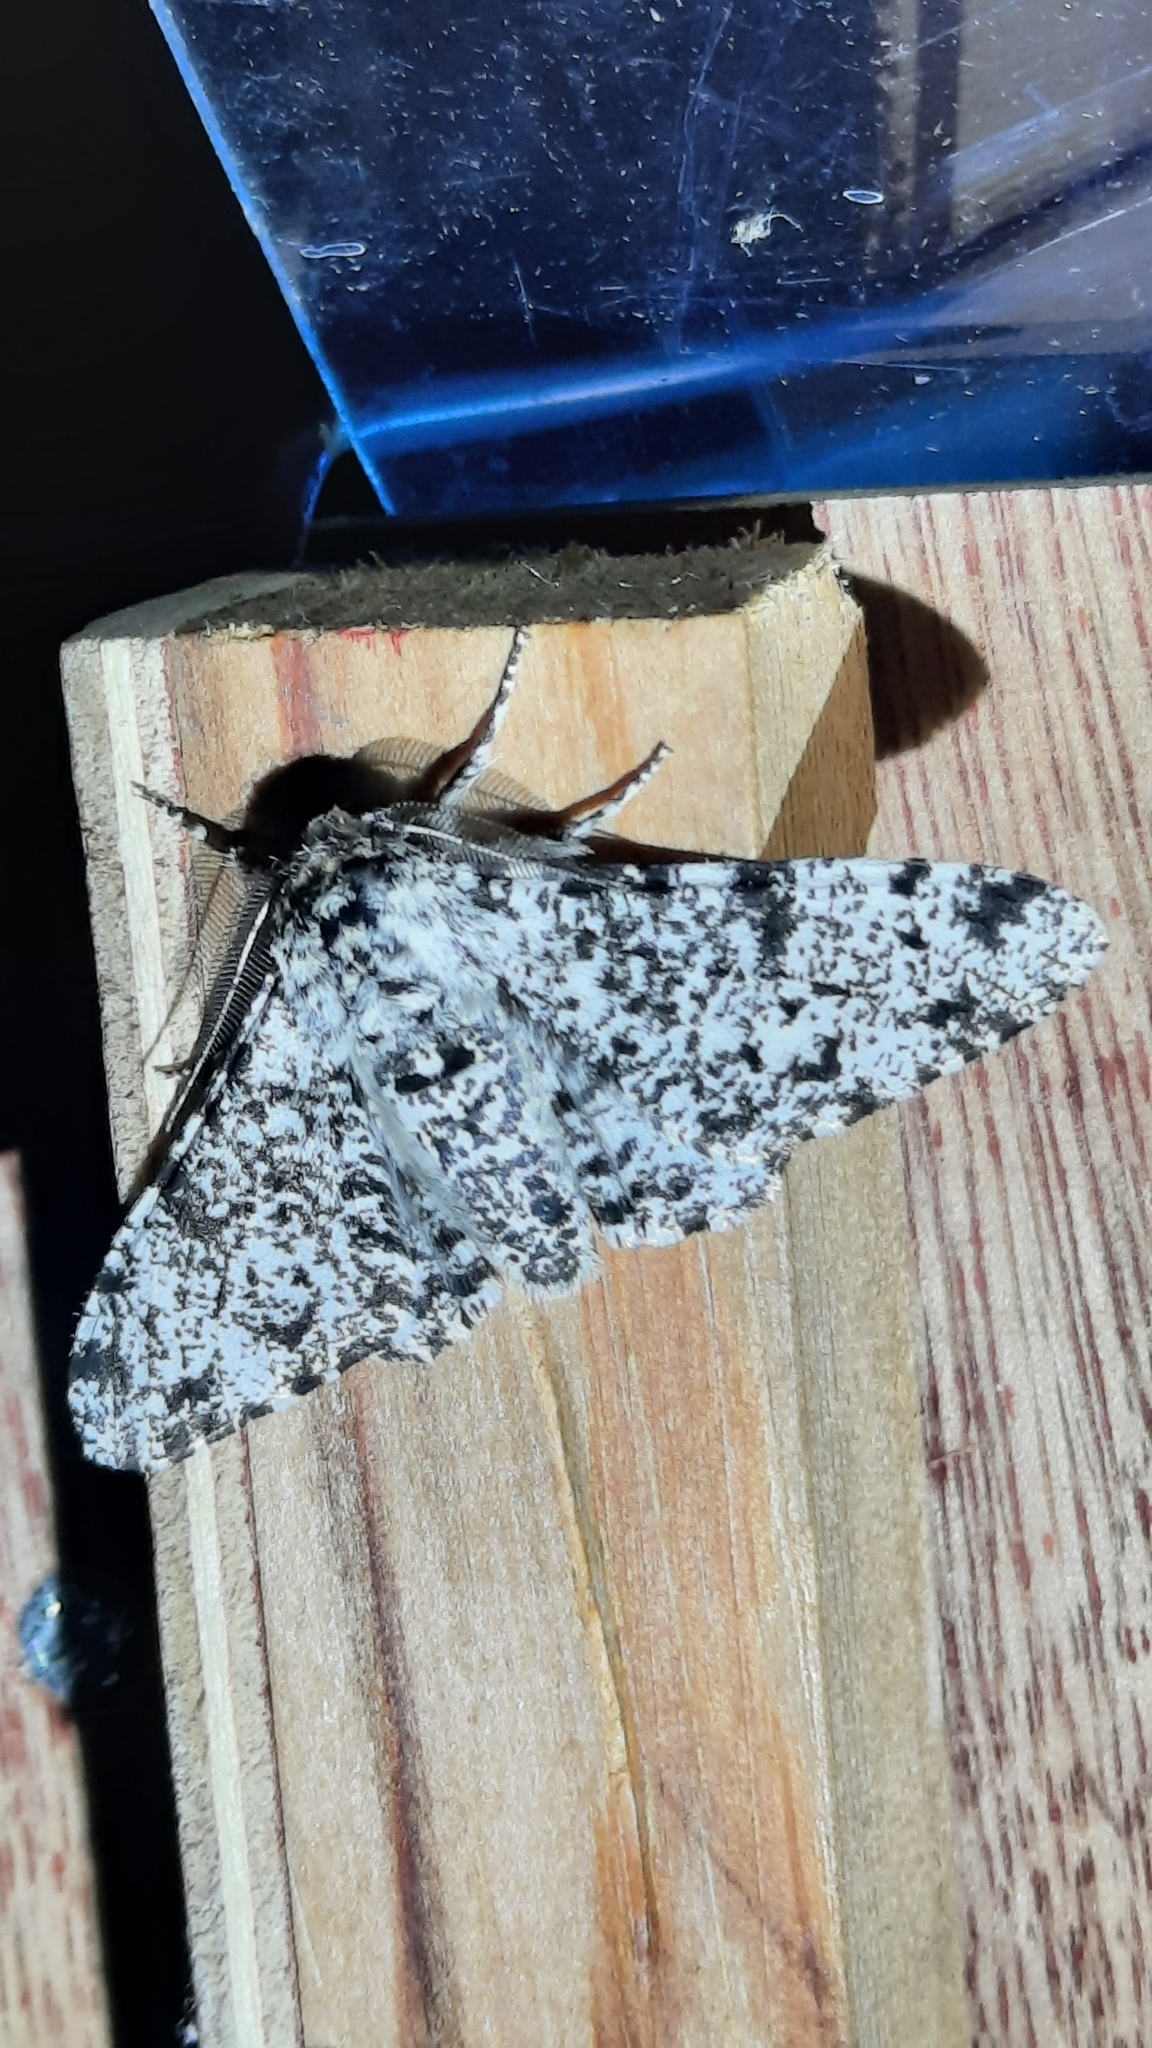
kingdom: Animalia
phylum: Arthropoda
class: Insecta
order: Lepidoptera
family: Geometridae
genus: Biston
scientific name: Biston betularia
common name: Peppered moth
